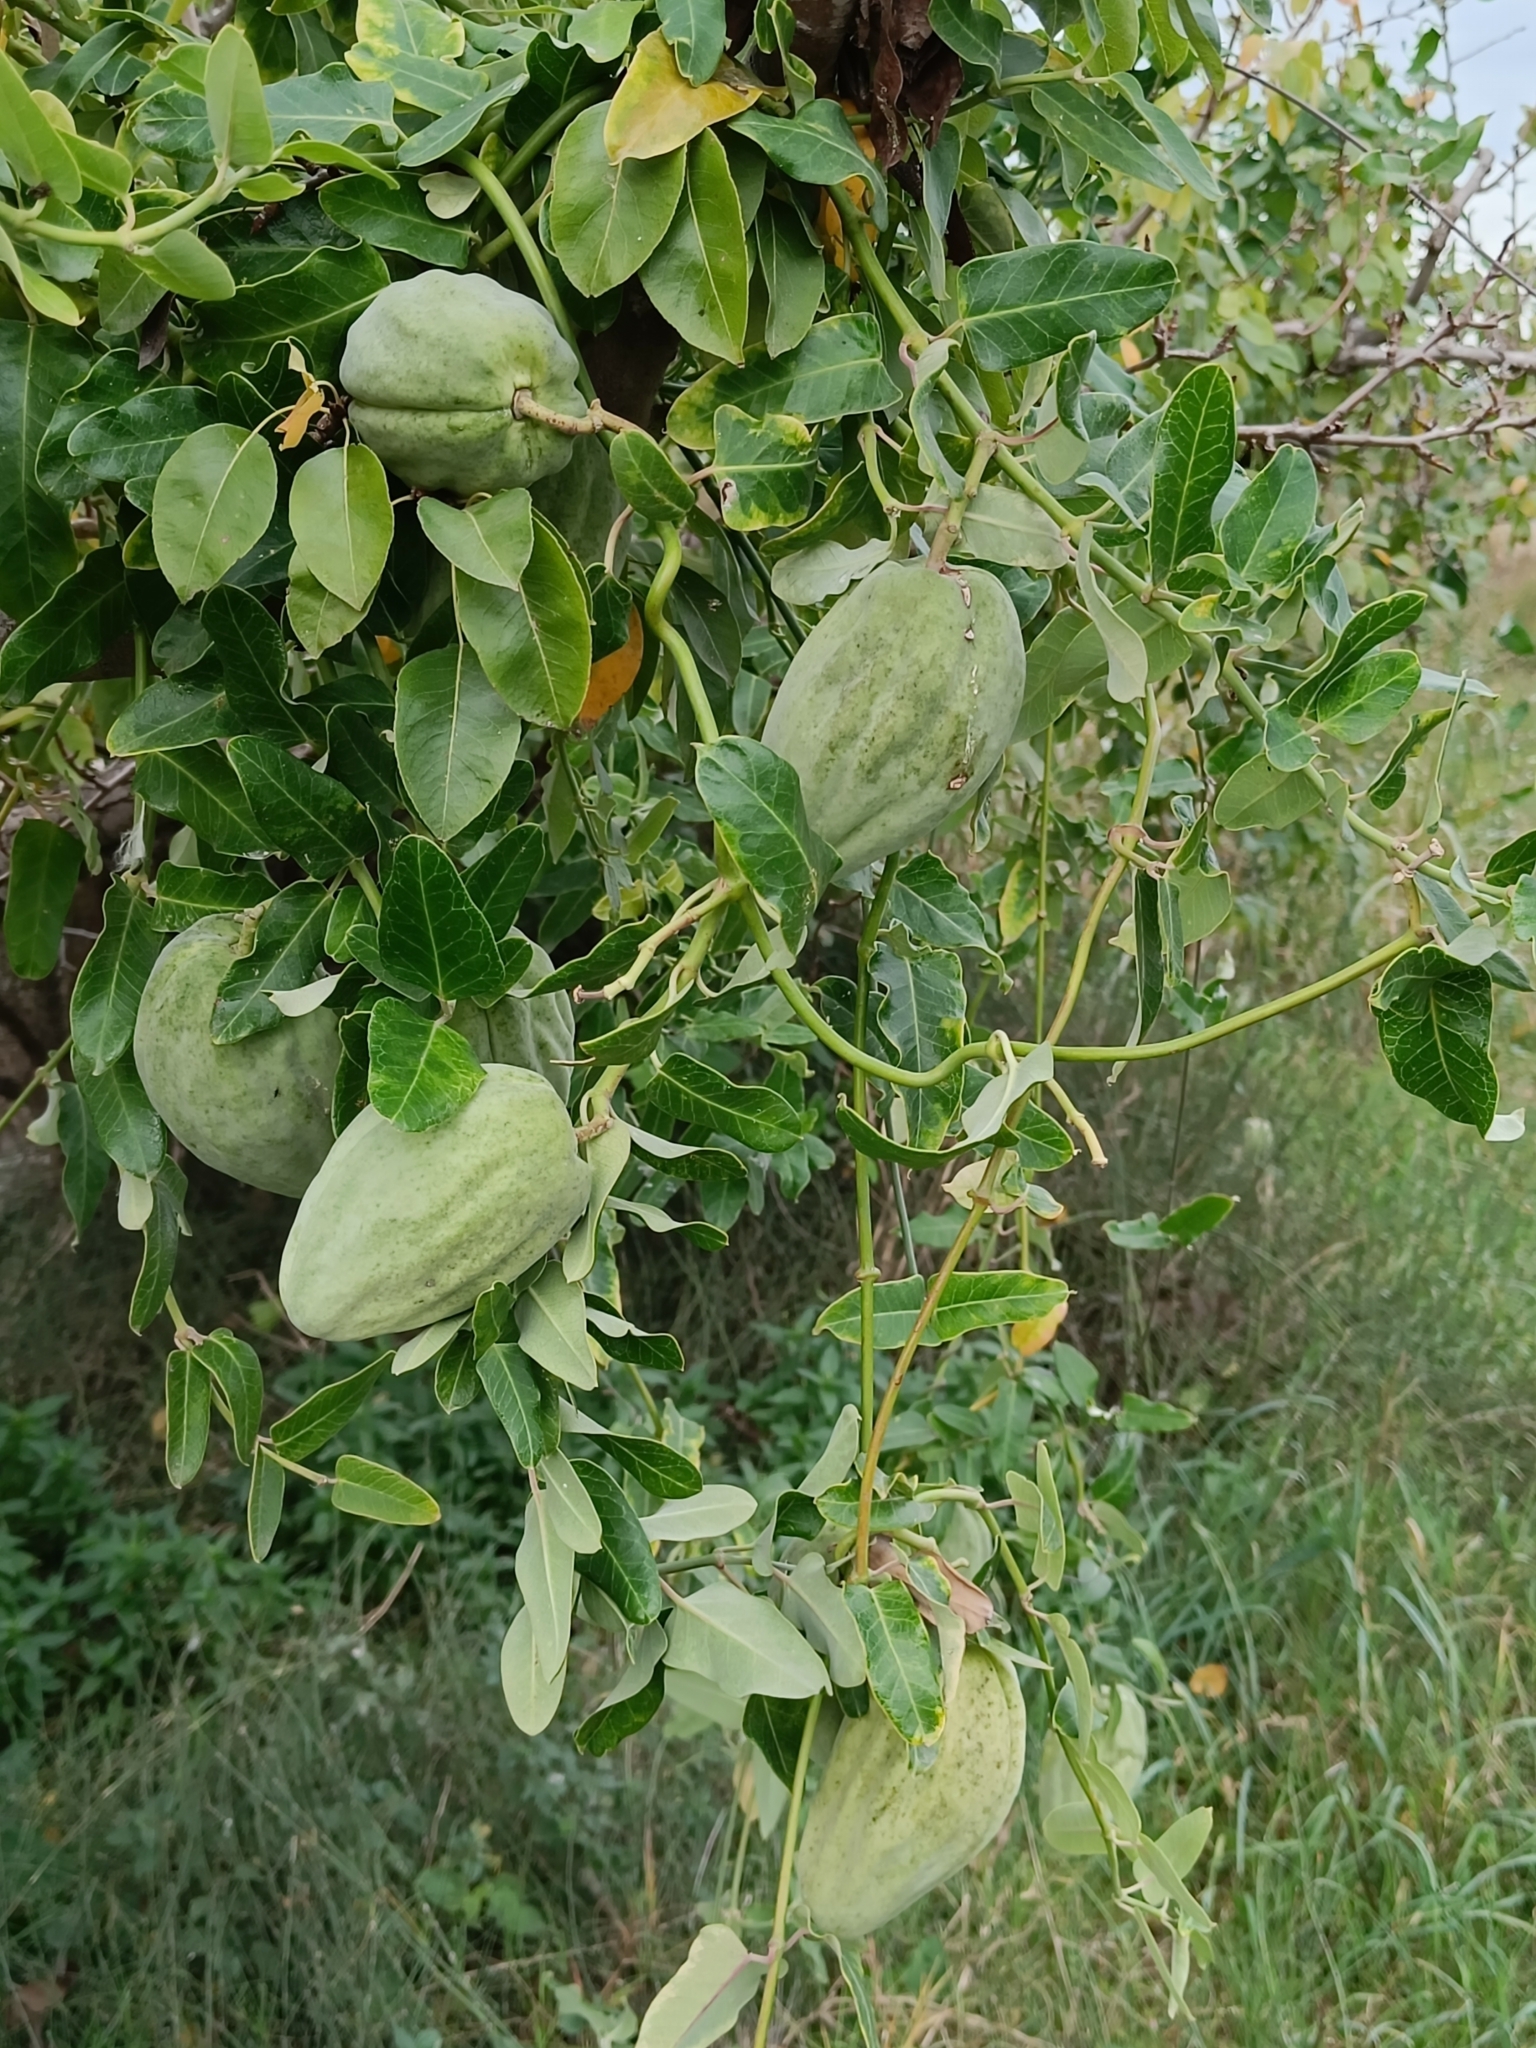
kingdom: Plantae
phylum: Tracheophyta
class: Magnoliopsida
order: Gentianales
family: Apocynaceae
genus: Araujia
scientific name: Araujia sericifera
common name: White bladderflower
